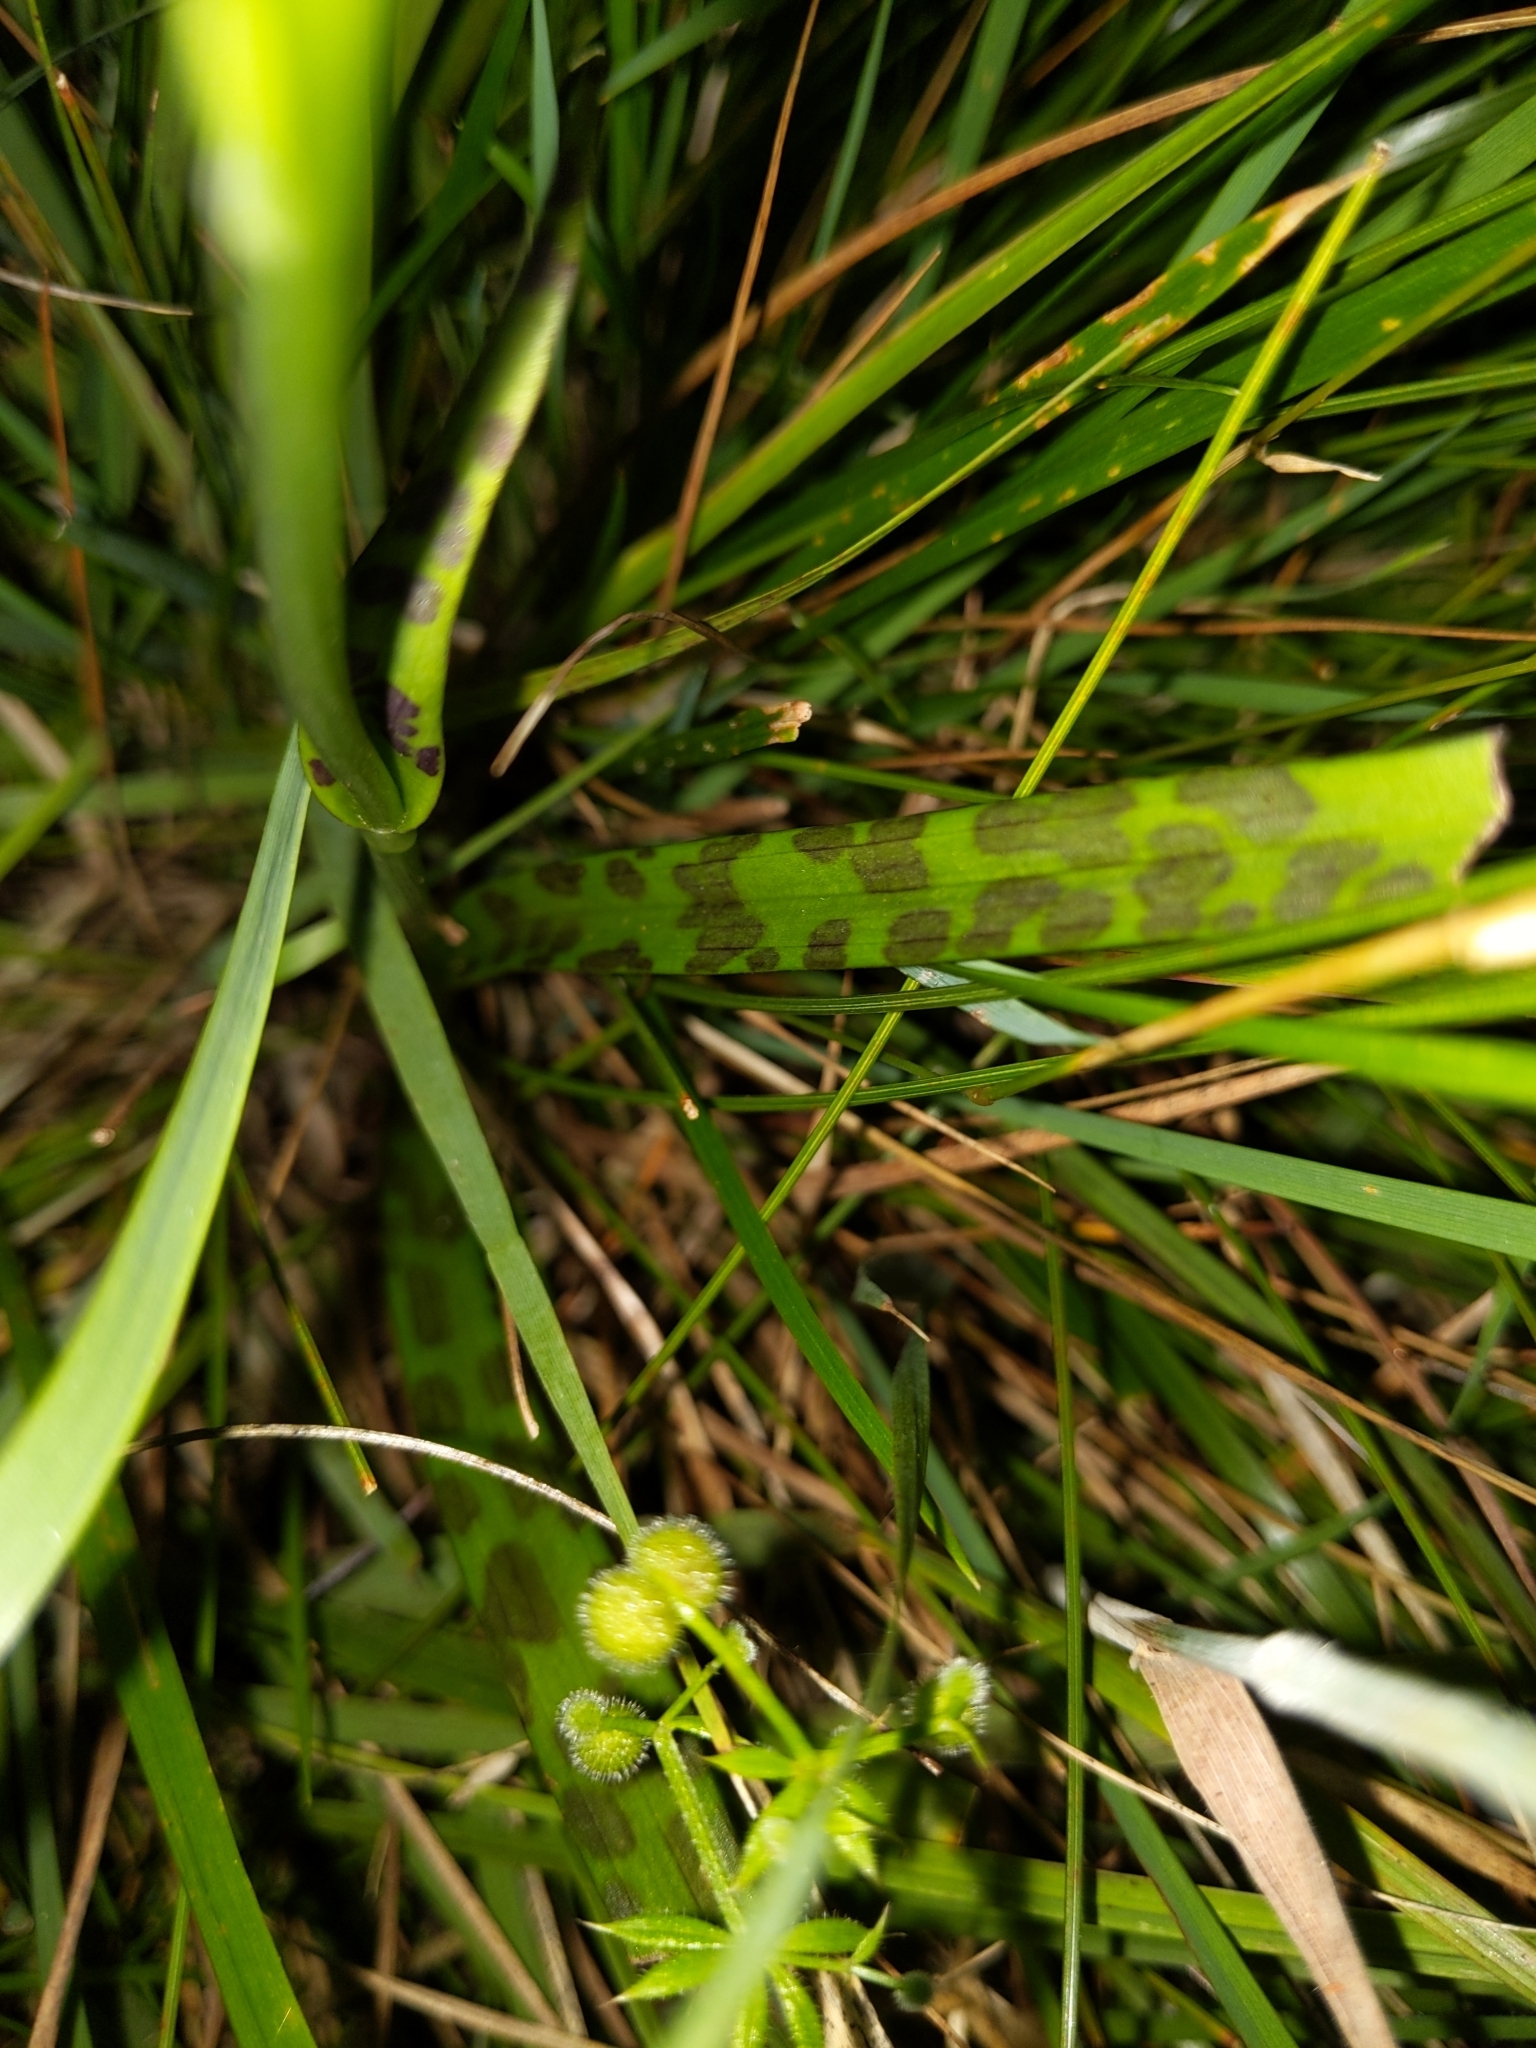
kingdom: Plantae
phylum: Tracheophyta
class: Liliopsida
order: Asparagales
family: Orchidaceae
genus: Dactylorhiza
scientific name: Dactylorhiza maculata
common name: Heath spotted-orchid
